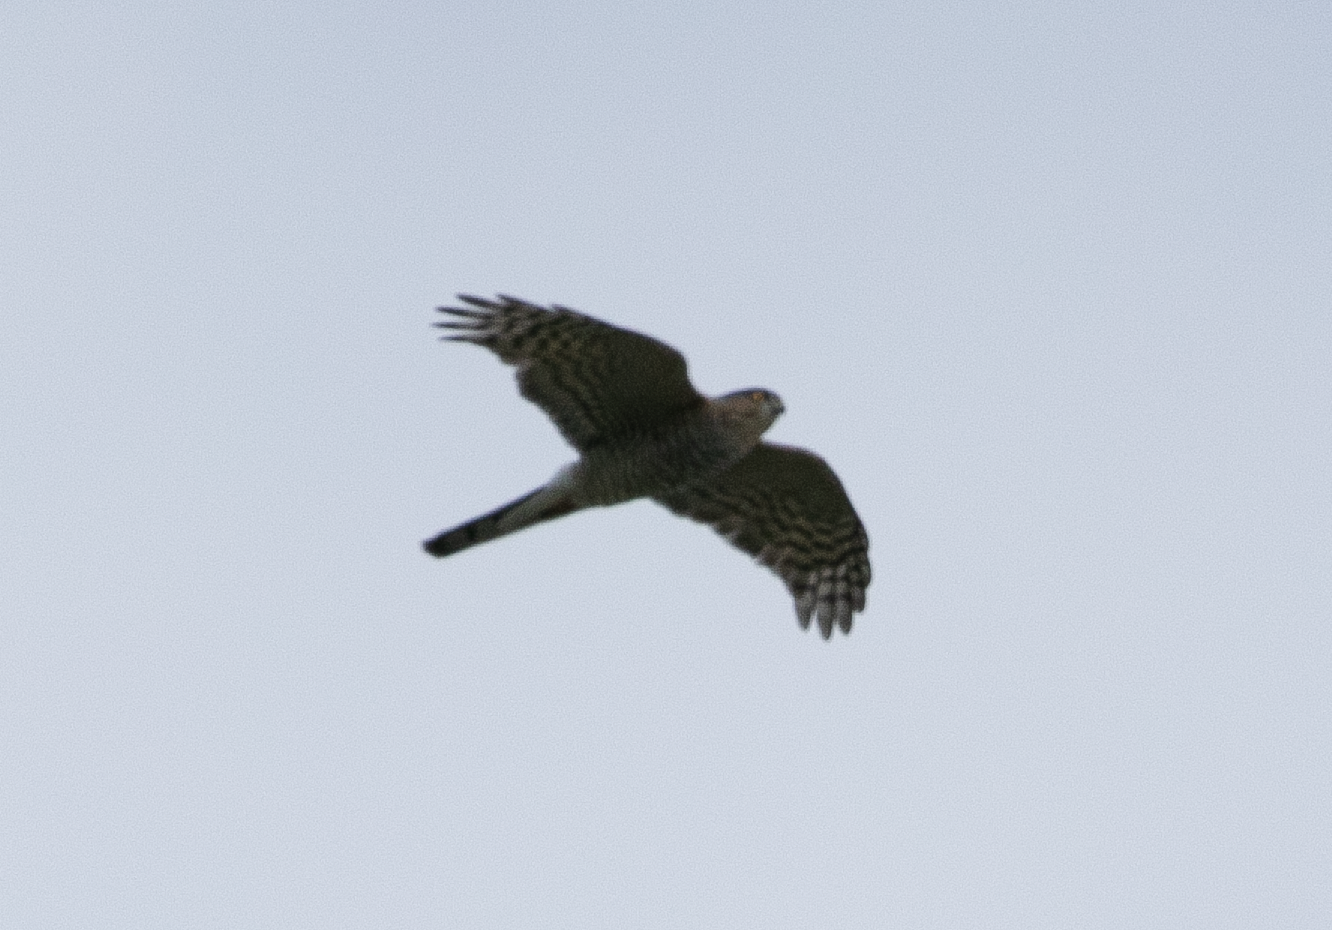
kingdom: Animalia
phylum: Chordata
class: Aves
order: Accipitriformes
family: Accipitridae
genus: Accipiter
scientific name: Accipiter nisus
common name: Eurasian sparrowhawk
